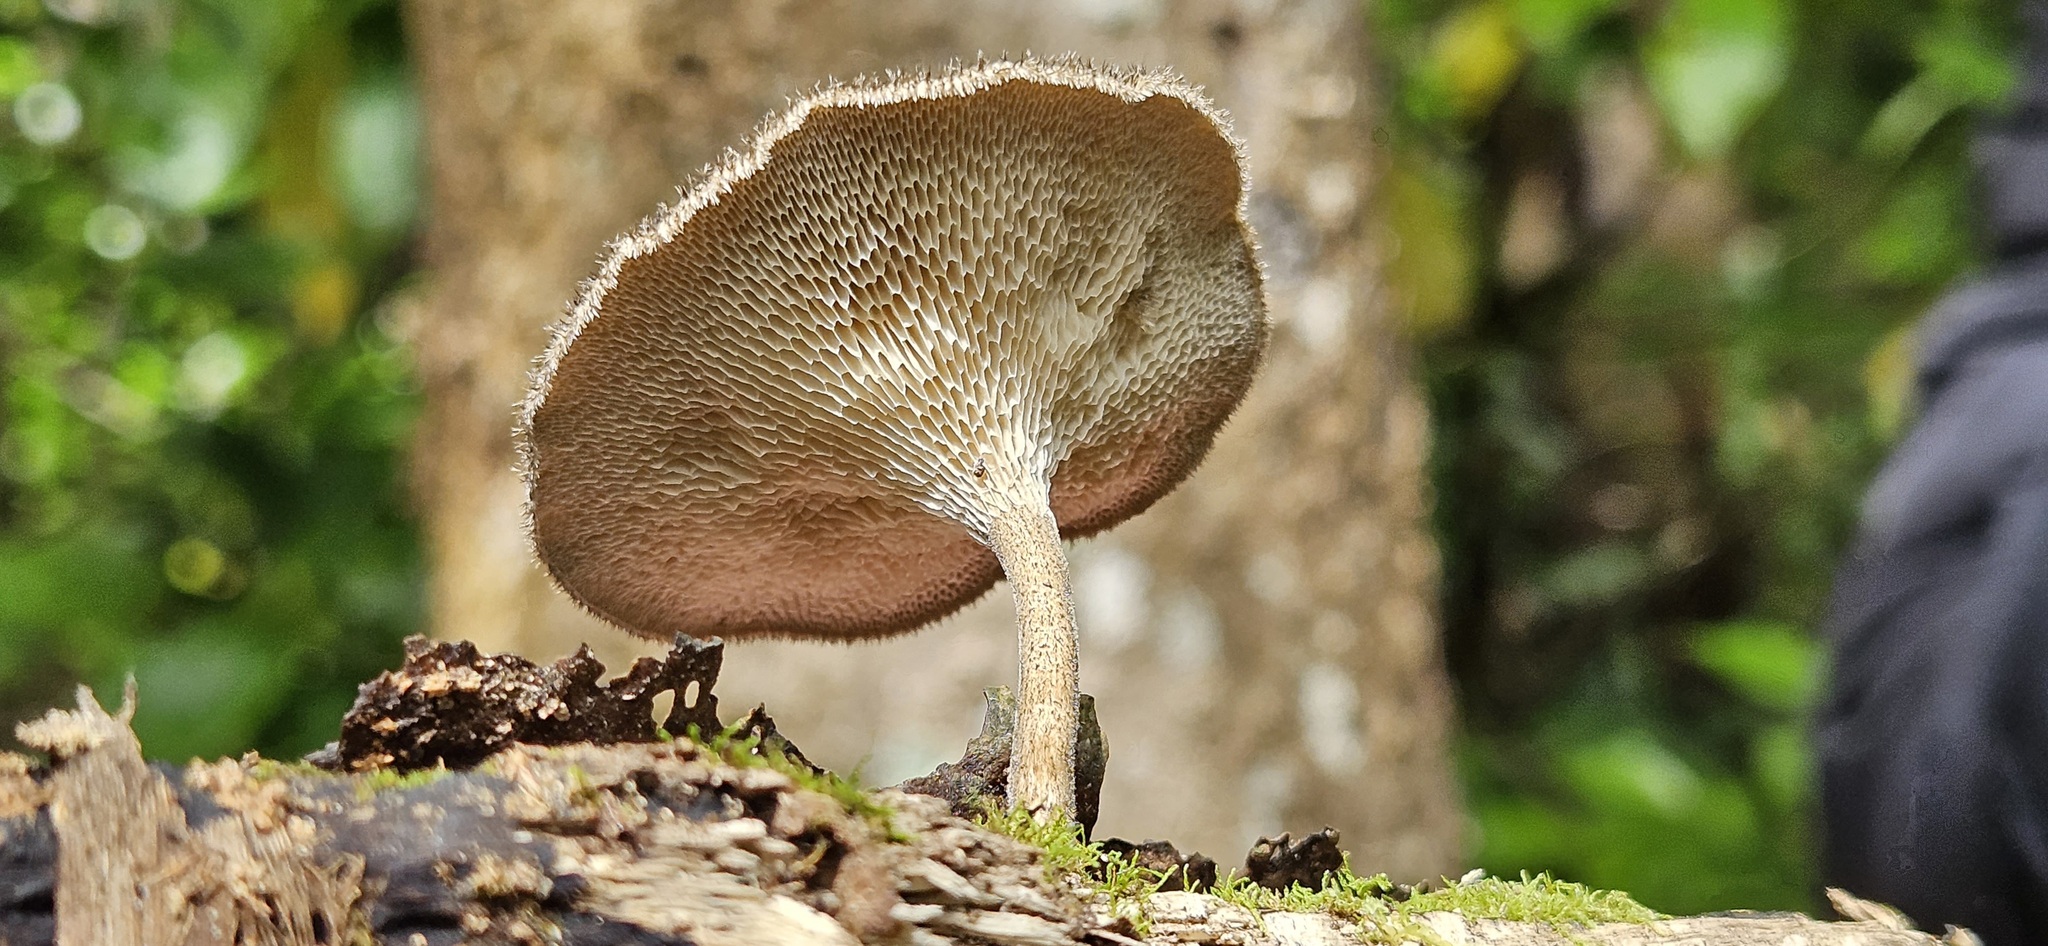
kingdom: Fungi
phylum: Basidiomycota
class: Agaricomycetes
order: Polyporales
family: Polyporaceae
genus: Lentinus
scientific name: Lentinus arcularius
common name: Spring polypore
